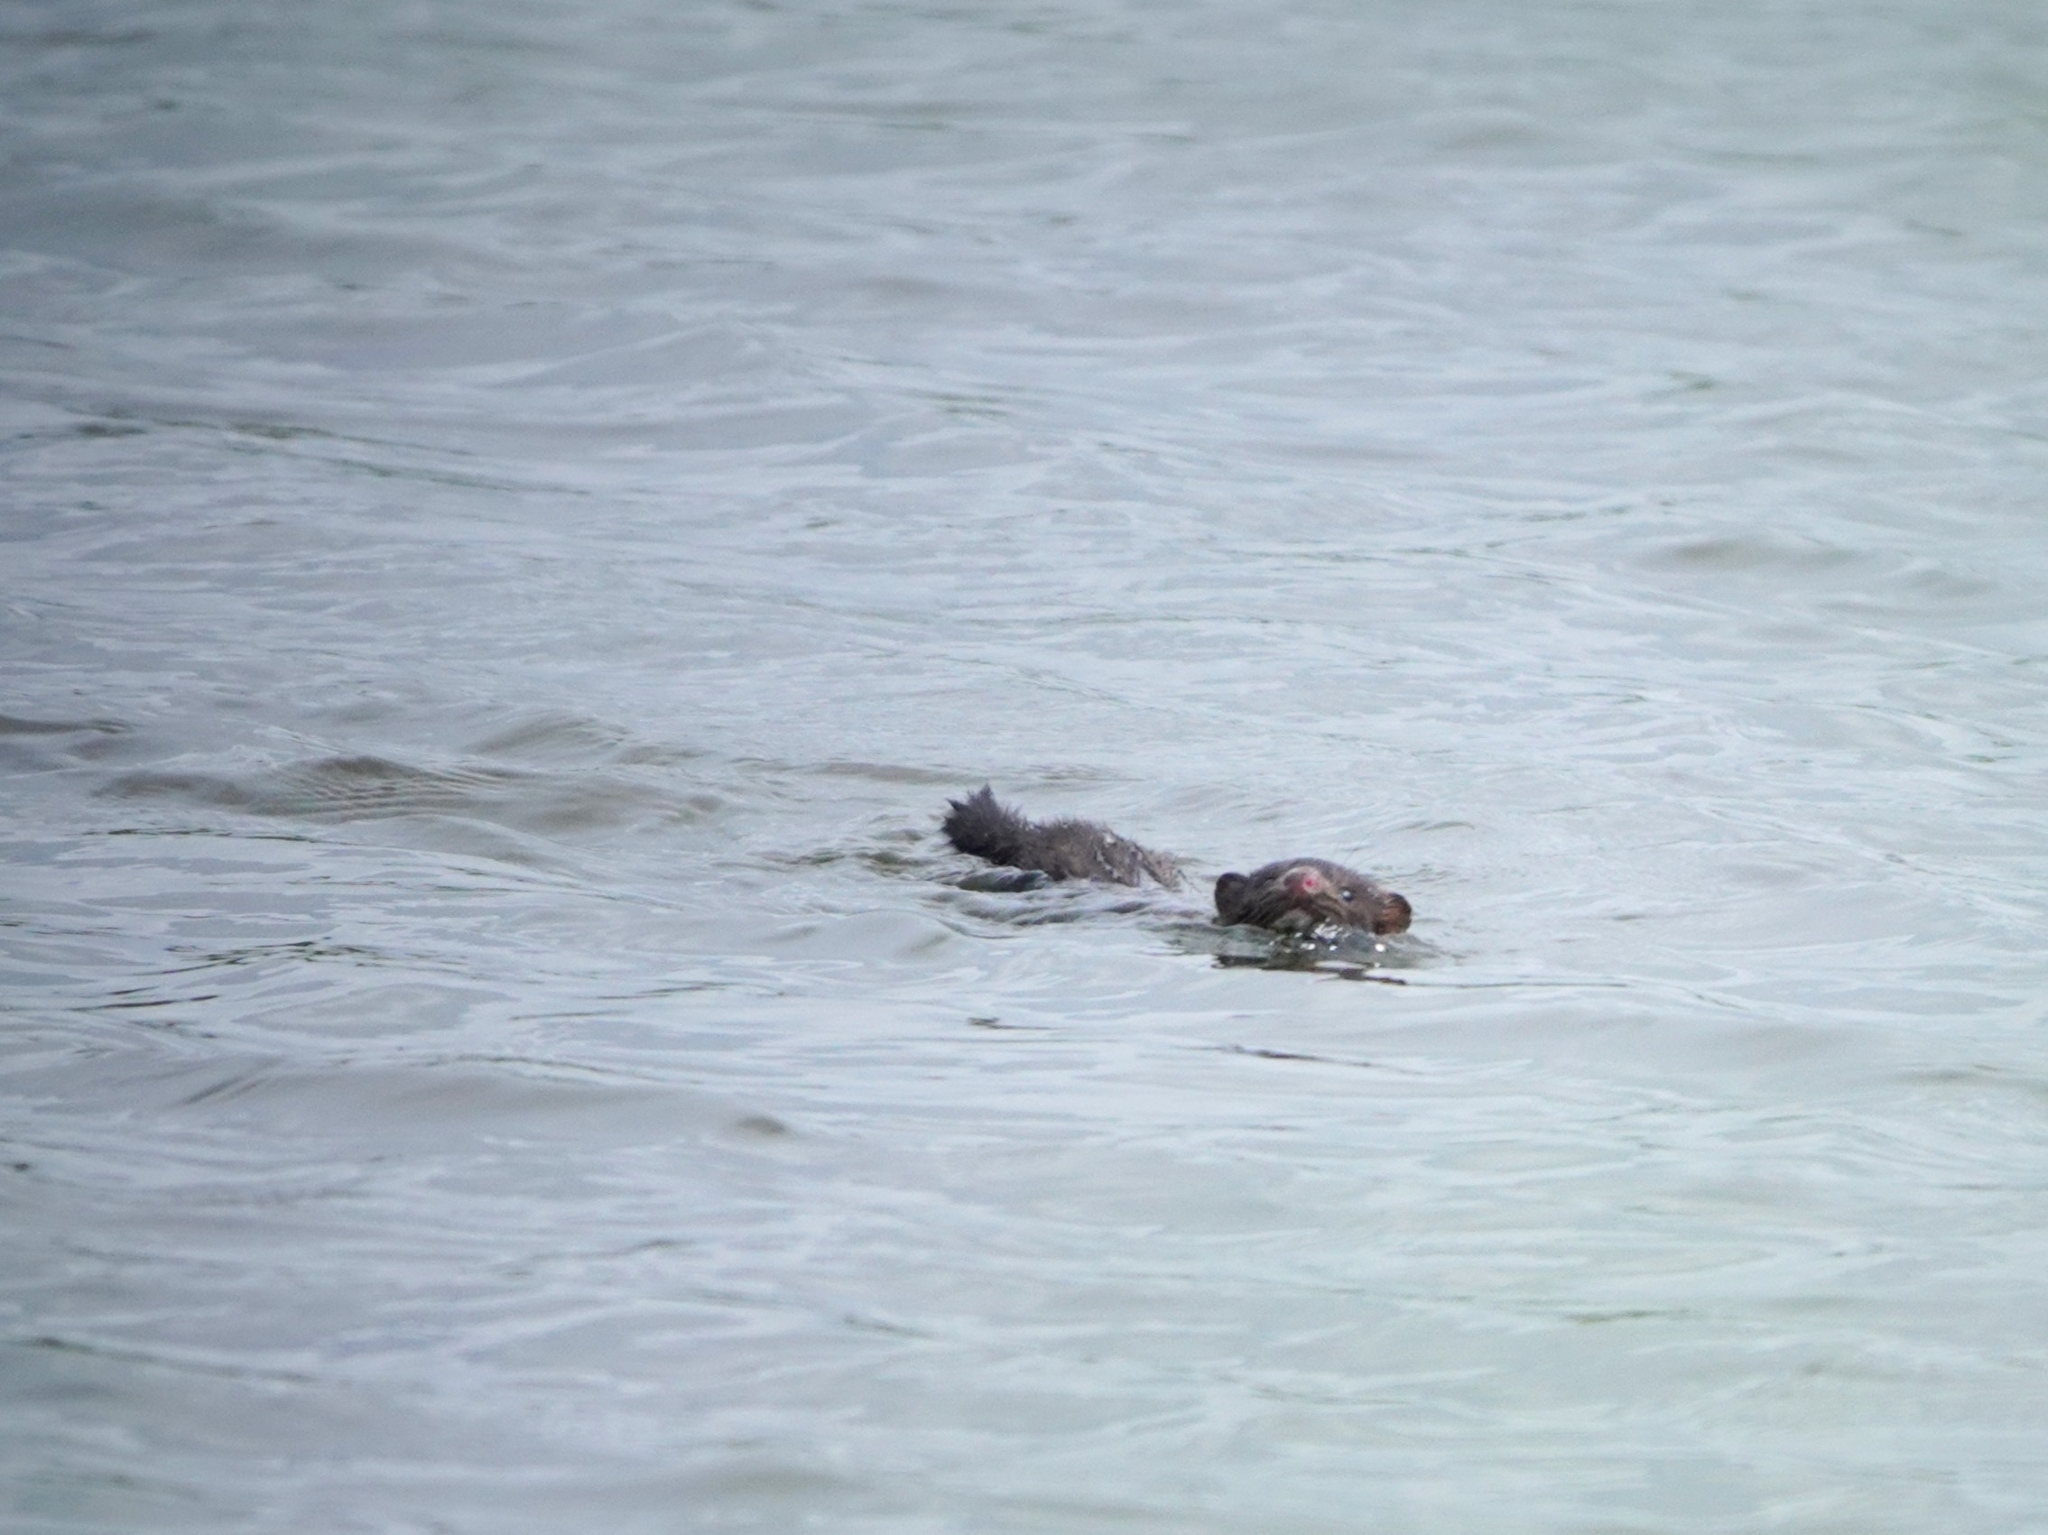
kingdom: Animalia
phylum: Chordata
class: Mammalia
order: Carnivora
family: Mustelidae
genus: Mustela
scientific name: Mustela
